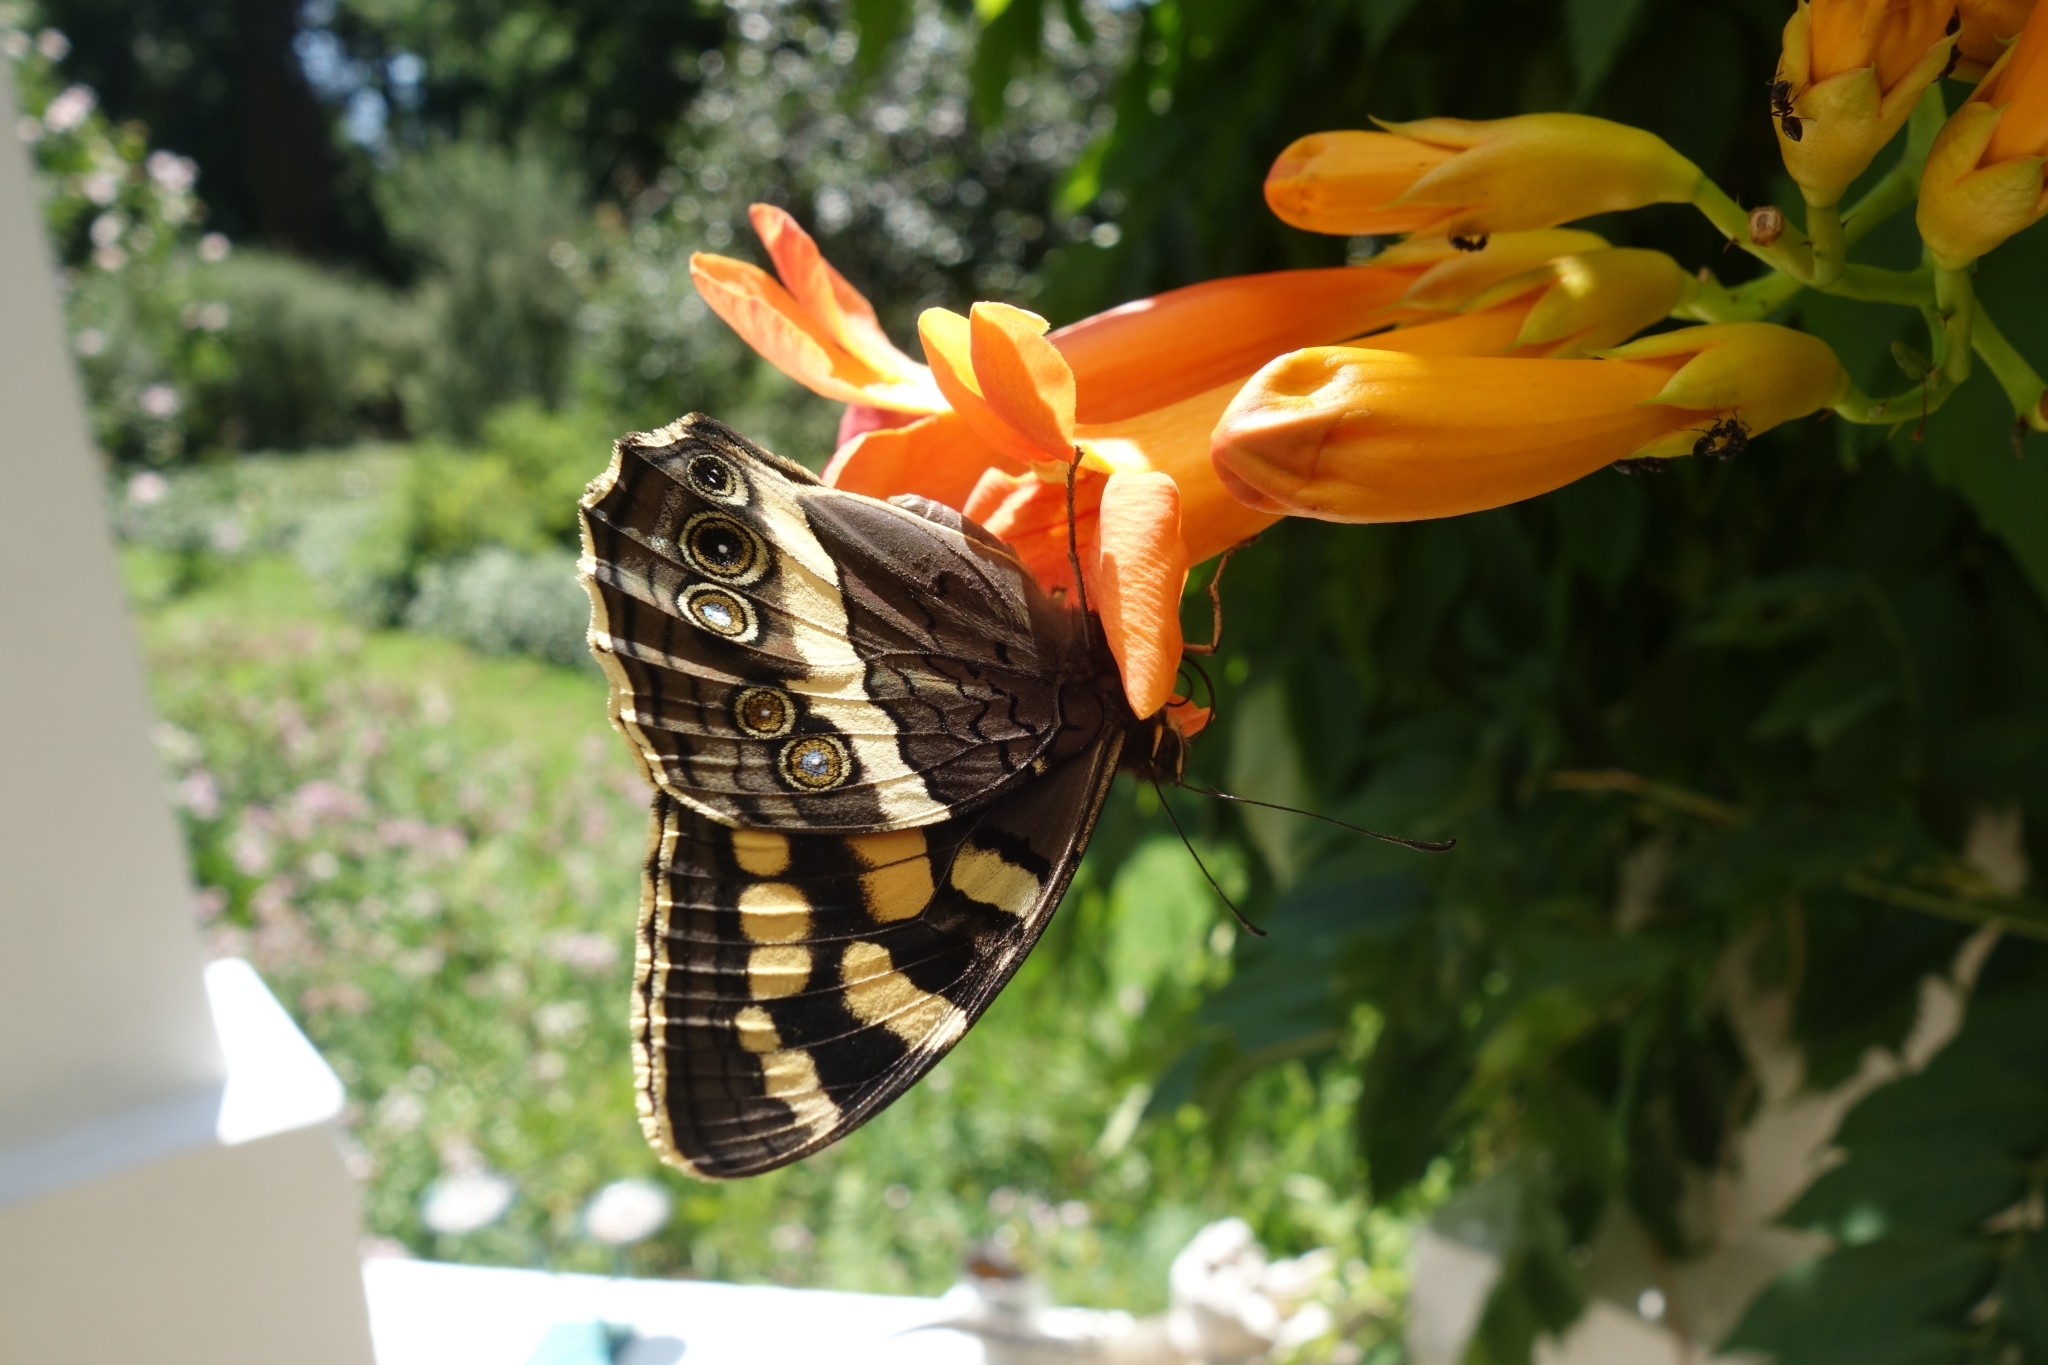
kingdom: Animalia
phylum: Arthropoda
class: Insecta
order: Lepidoptera
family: Nymphalidae
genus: Meneris
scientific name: Meneris Aeropetes tulbaghia
